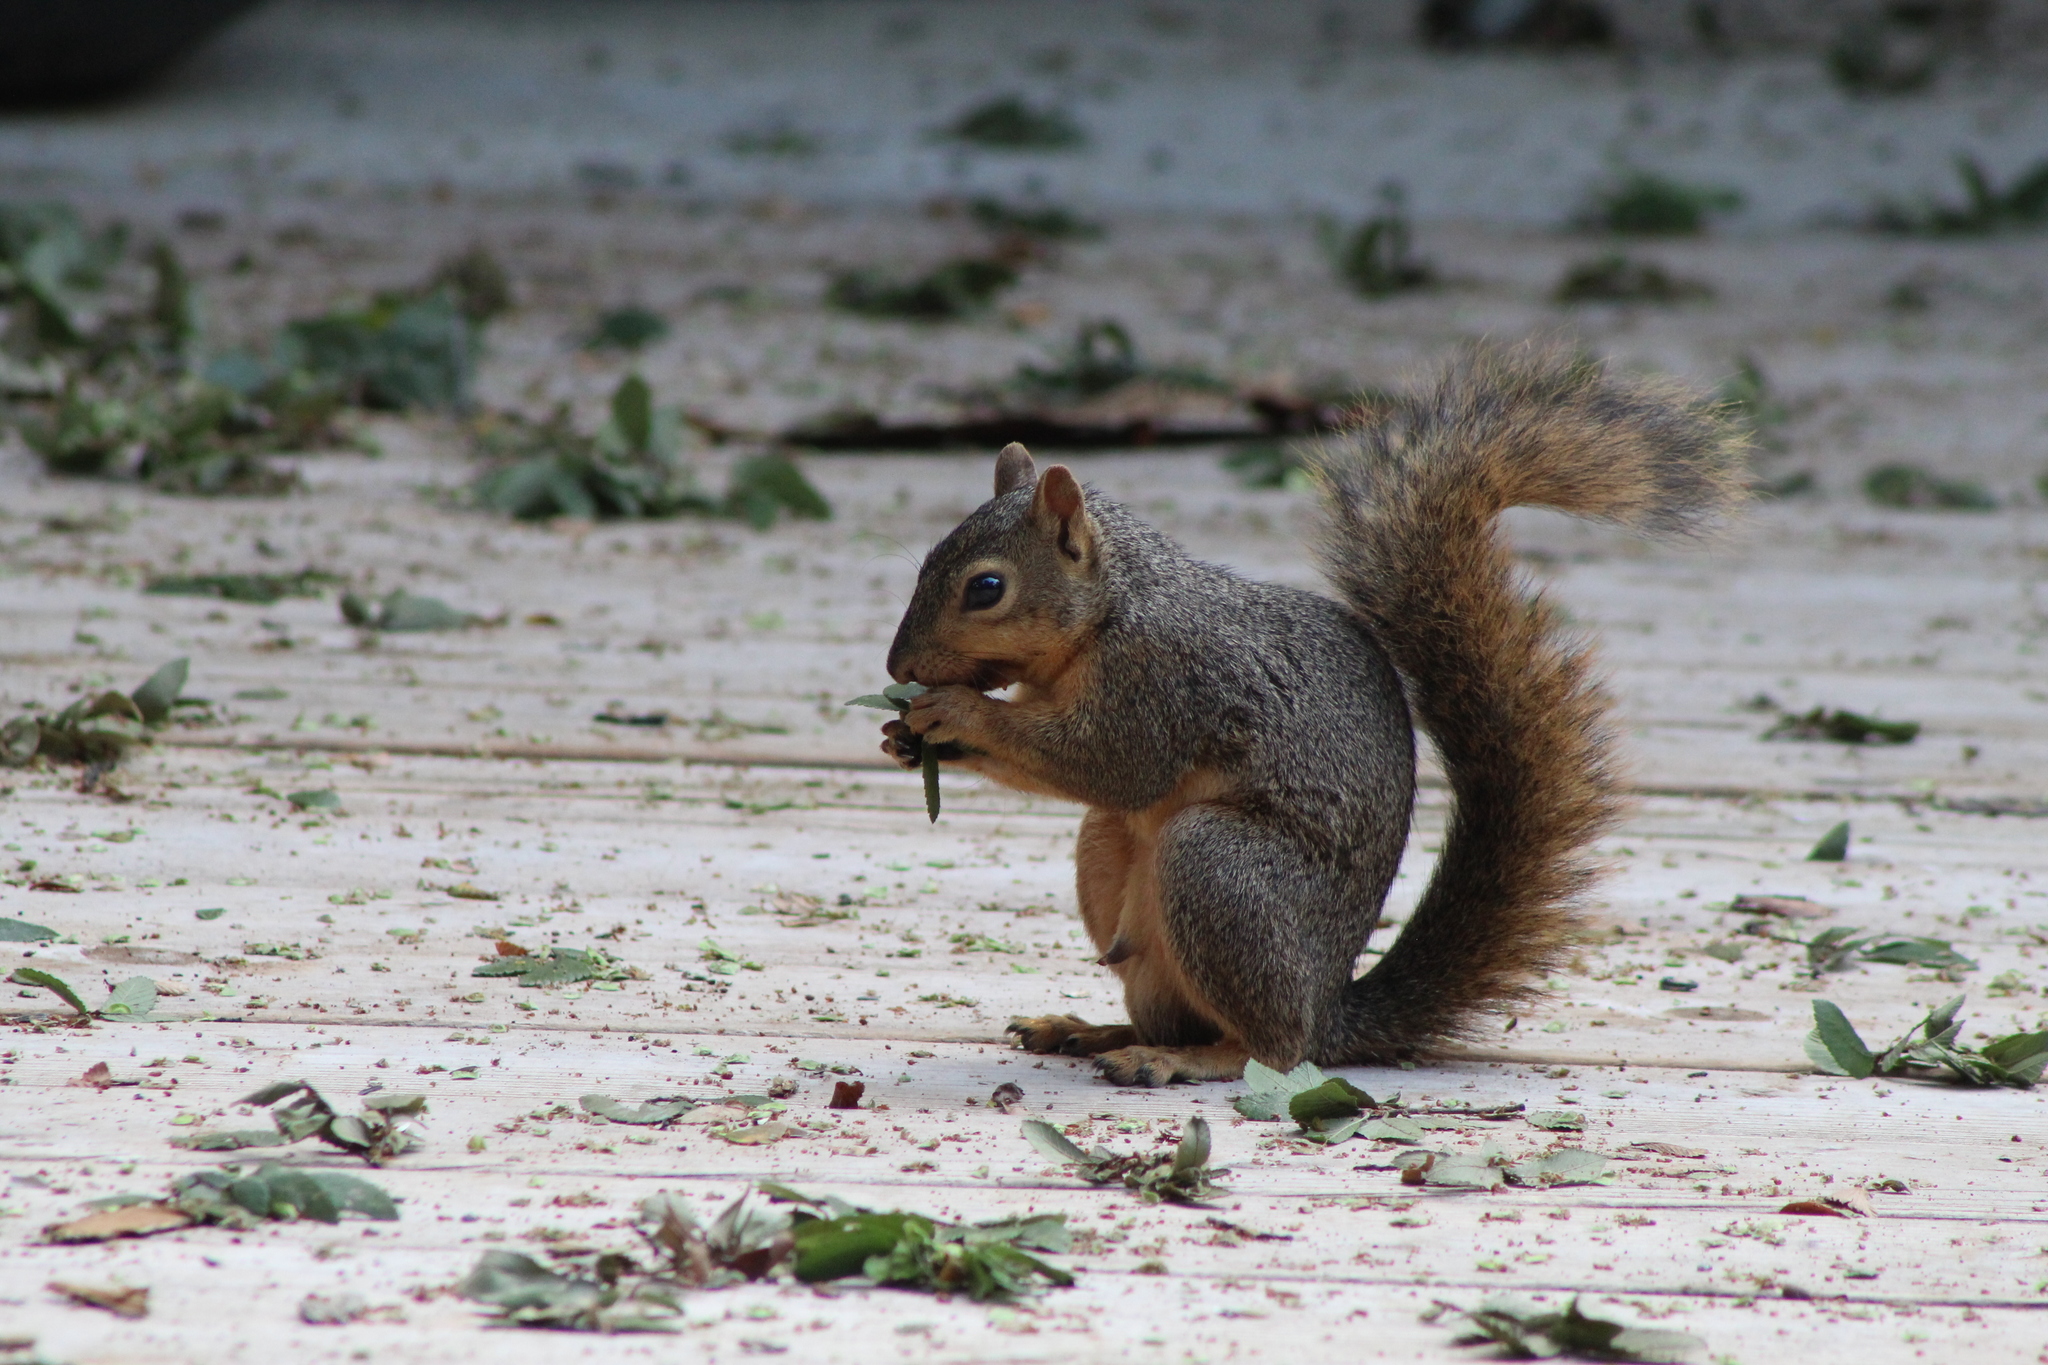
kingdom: Animalia
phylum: Chordata
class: Mammalia
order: Rodentia
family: Sciuridae
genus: Sciurus
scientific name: Sciurus niger
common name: Fox squirrel
